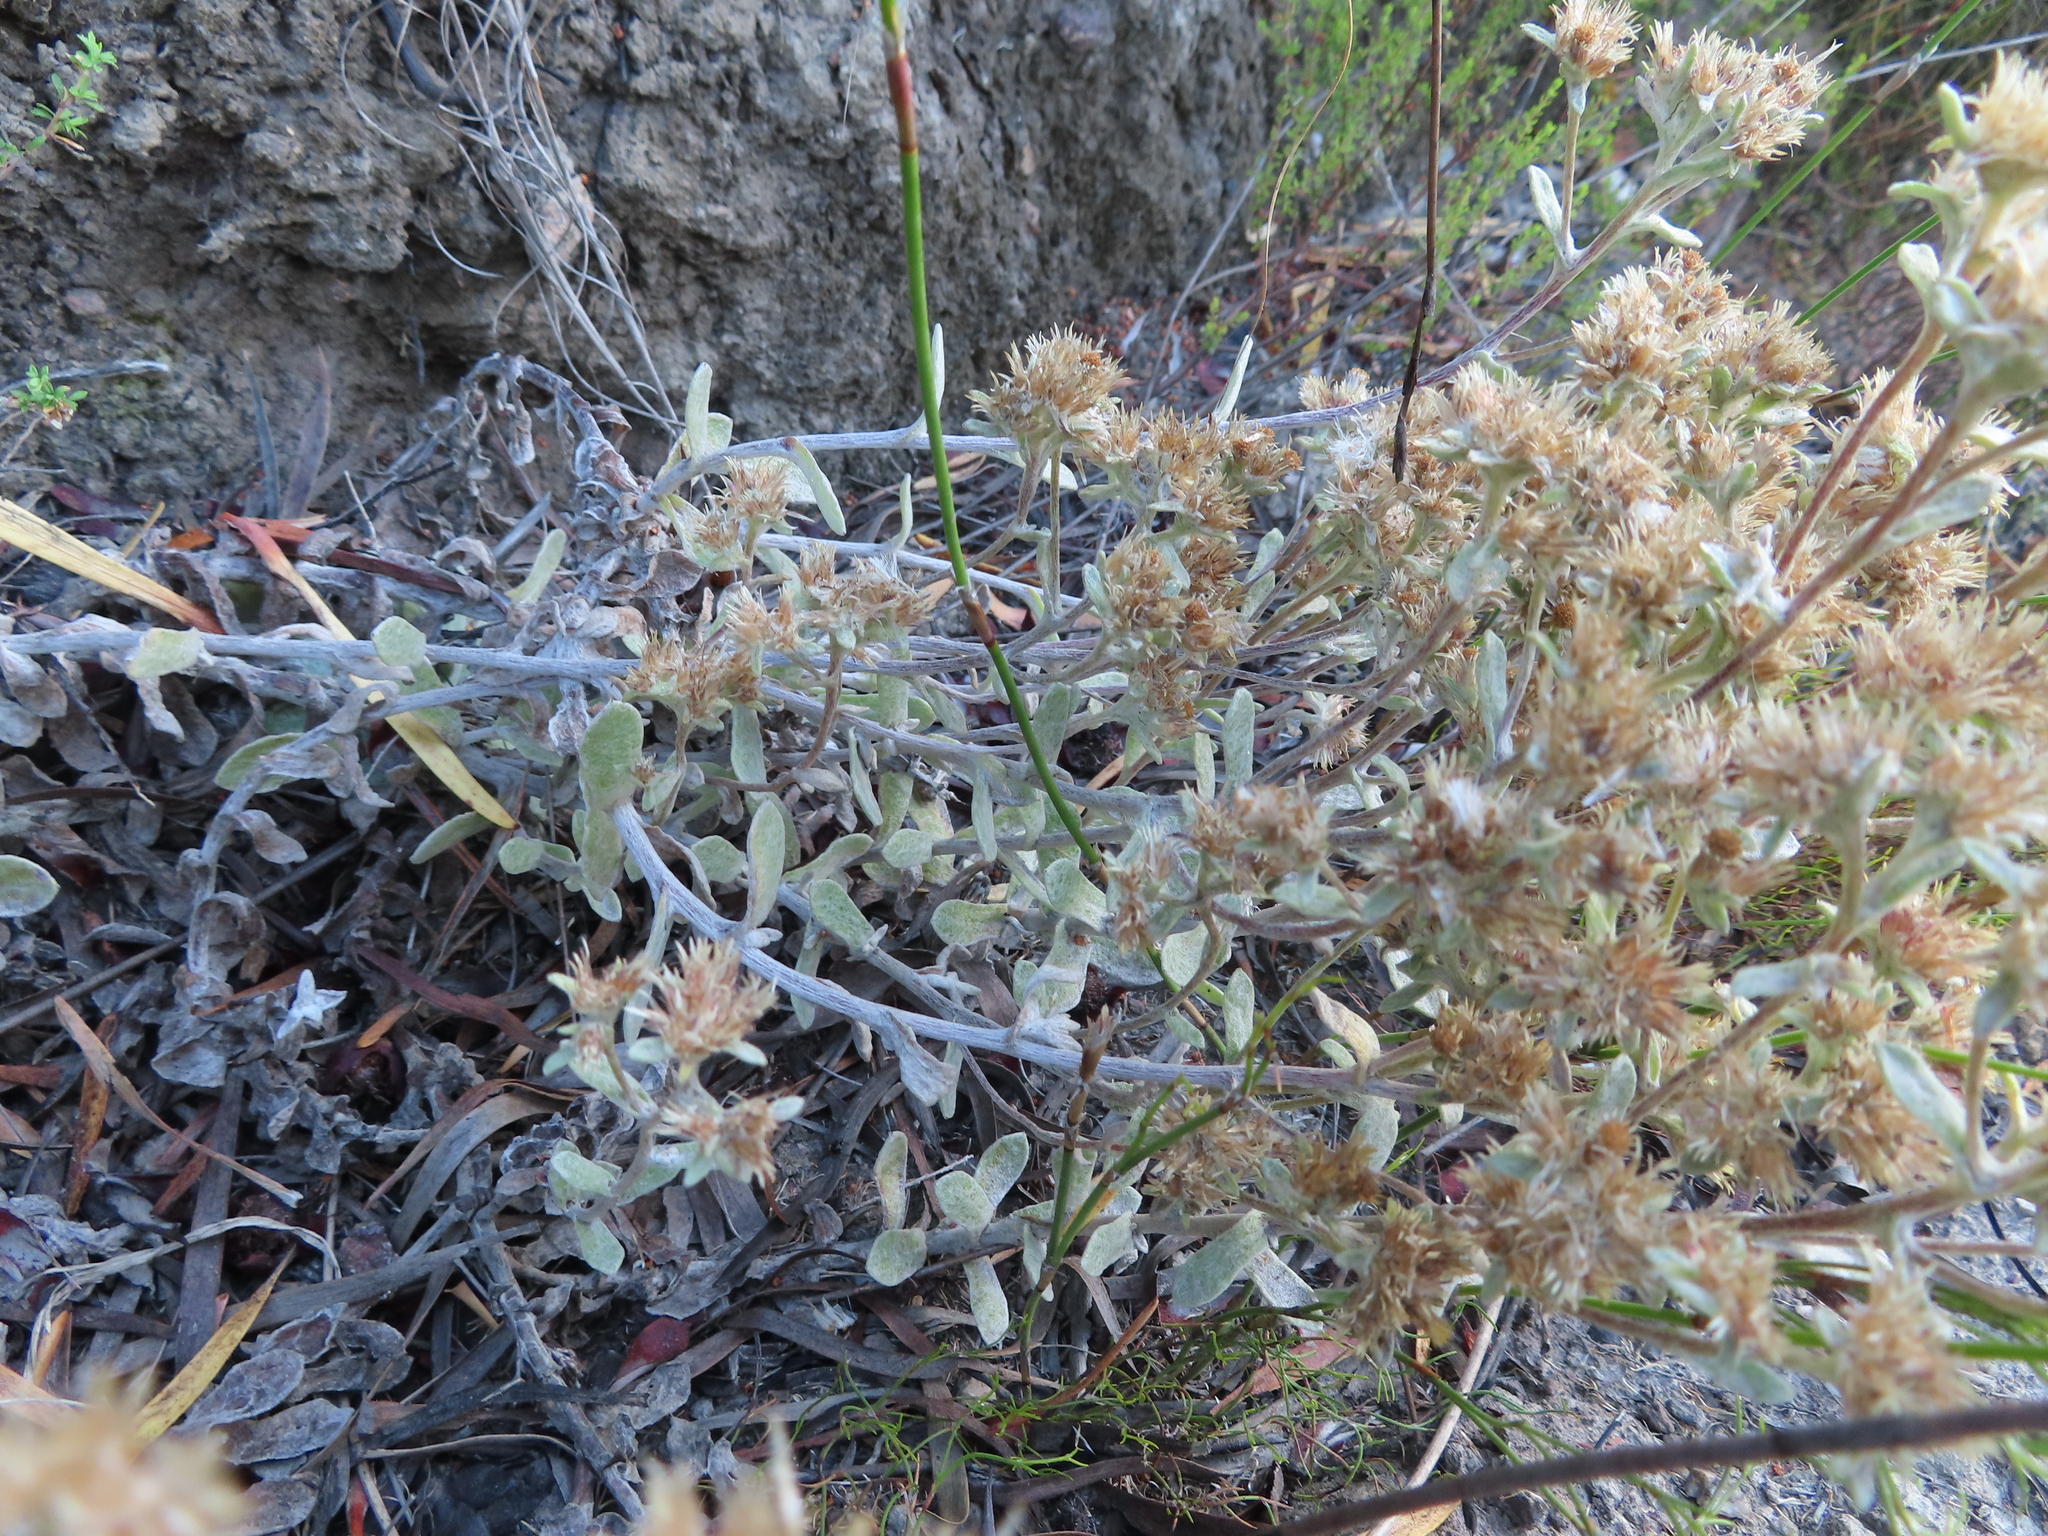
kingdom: Plantae
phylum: Tracheophyta
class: Magnoliopsida
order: Asterales
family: Asteraceae
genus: Helichrysum
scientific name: Helichrysum rotundifolium
